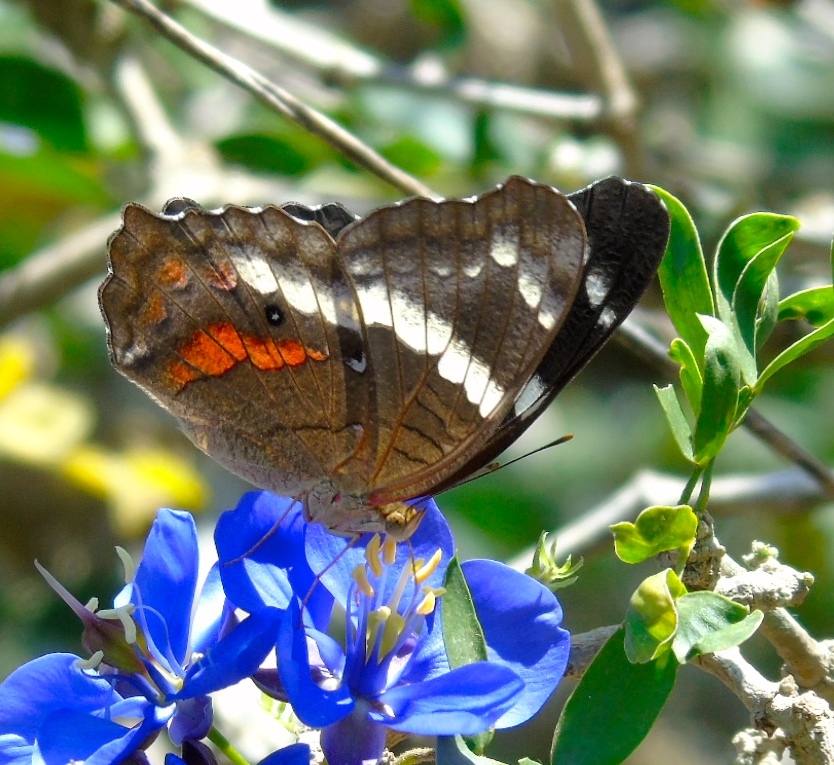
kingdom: Animalia
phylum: Arthropoda
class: Insecta
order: Lepidoptera
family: Nymphalidae
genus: Anartia
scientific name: Anartia fatima
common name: Banded peacock
